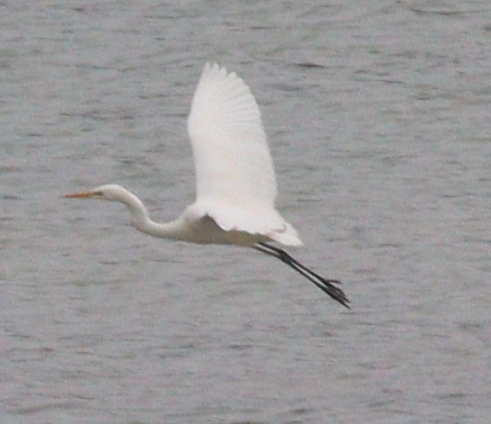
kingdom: Animalia
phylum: Chordata
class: Aves
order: Pelecaniformes
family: Ardeidae
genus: Ardea
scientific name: Ardea alba
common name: Great egret
